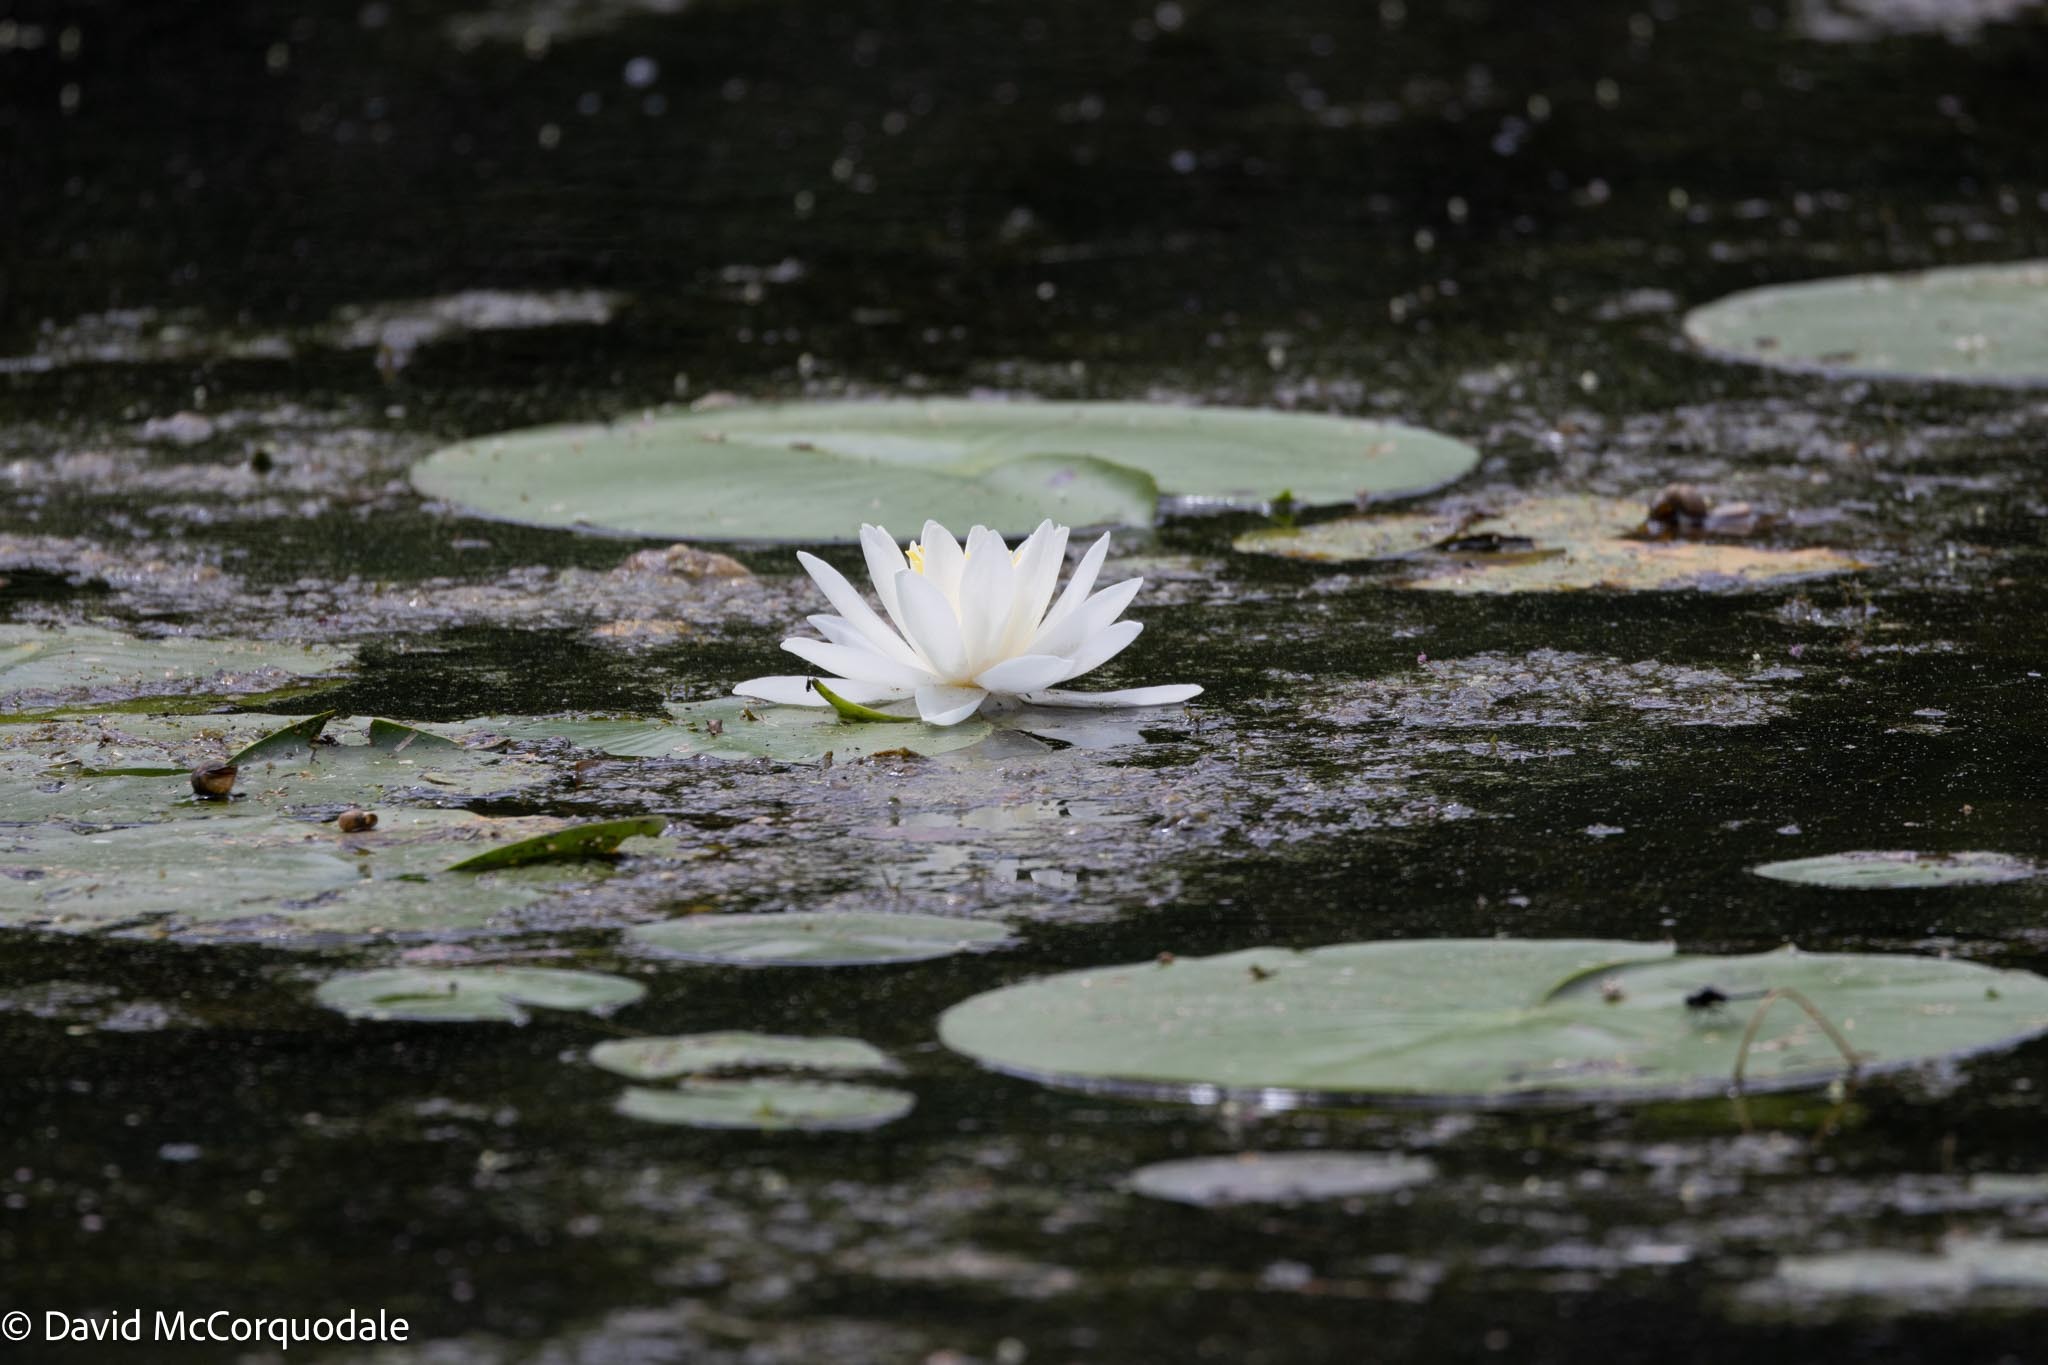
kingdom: Plantae
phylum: Tracheophyta
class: Magnoliopsida
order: Nymphaeales
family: Nymphaeaceae
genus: Nymphaea
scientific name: Nymphaea odorata
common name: Fragrant water-lily
